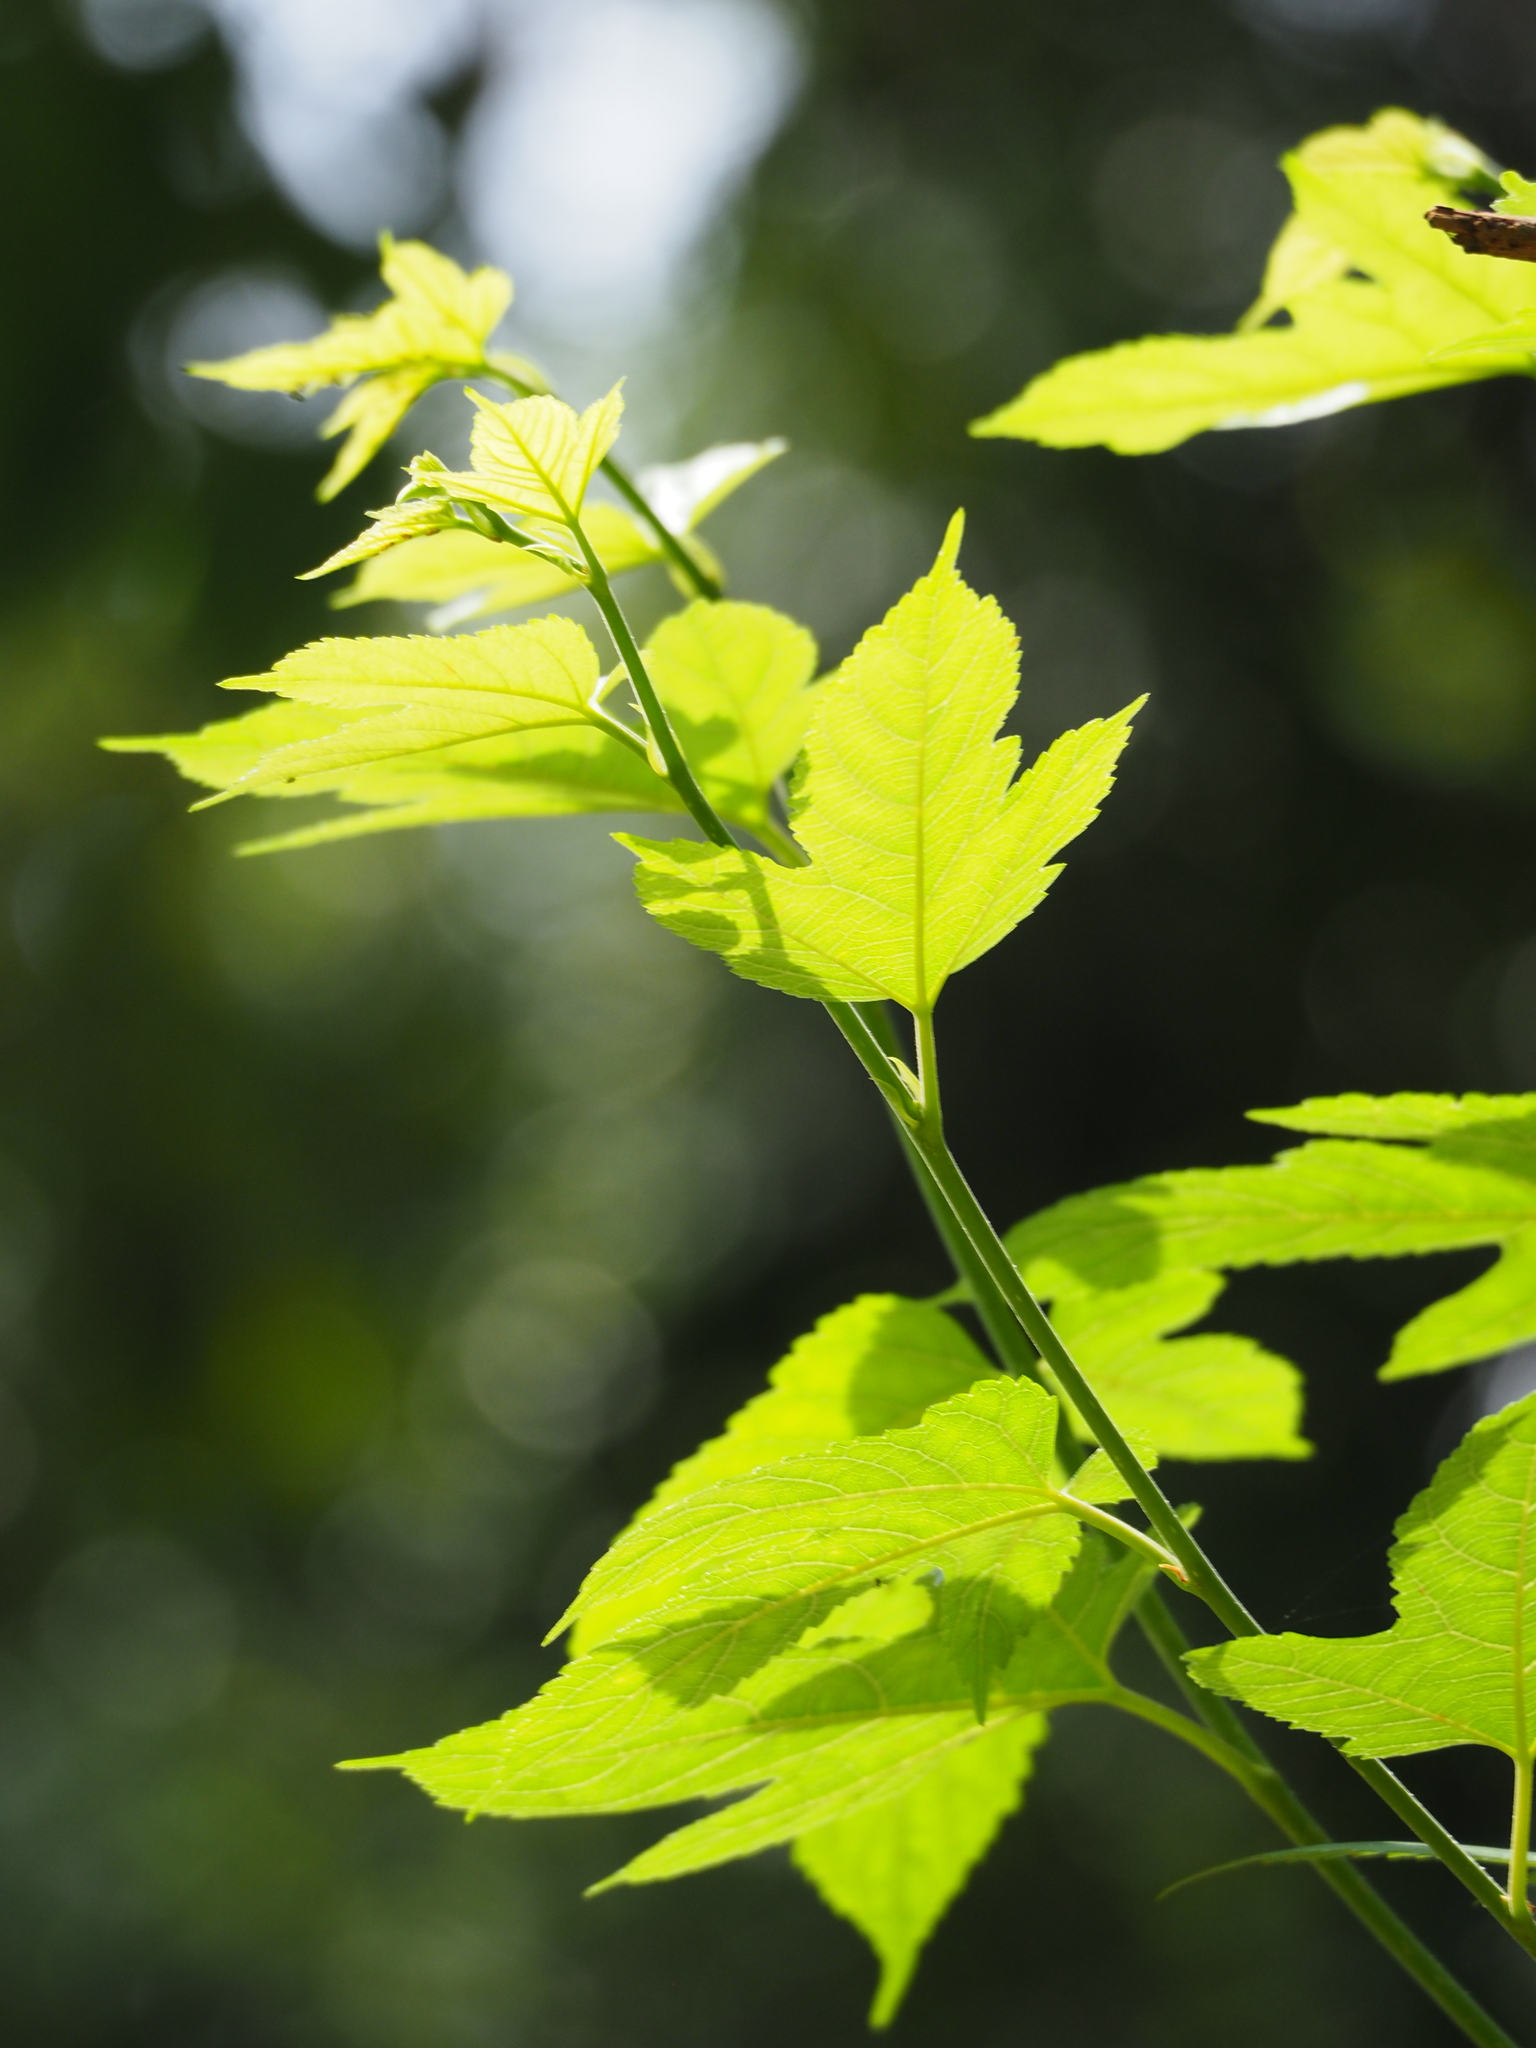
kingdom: Plantae
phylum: Tracheophyta
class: Magnoliopsida
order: Rosales
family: Moraceae
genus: Morus
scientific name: Morus indica
